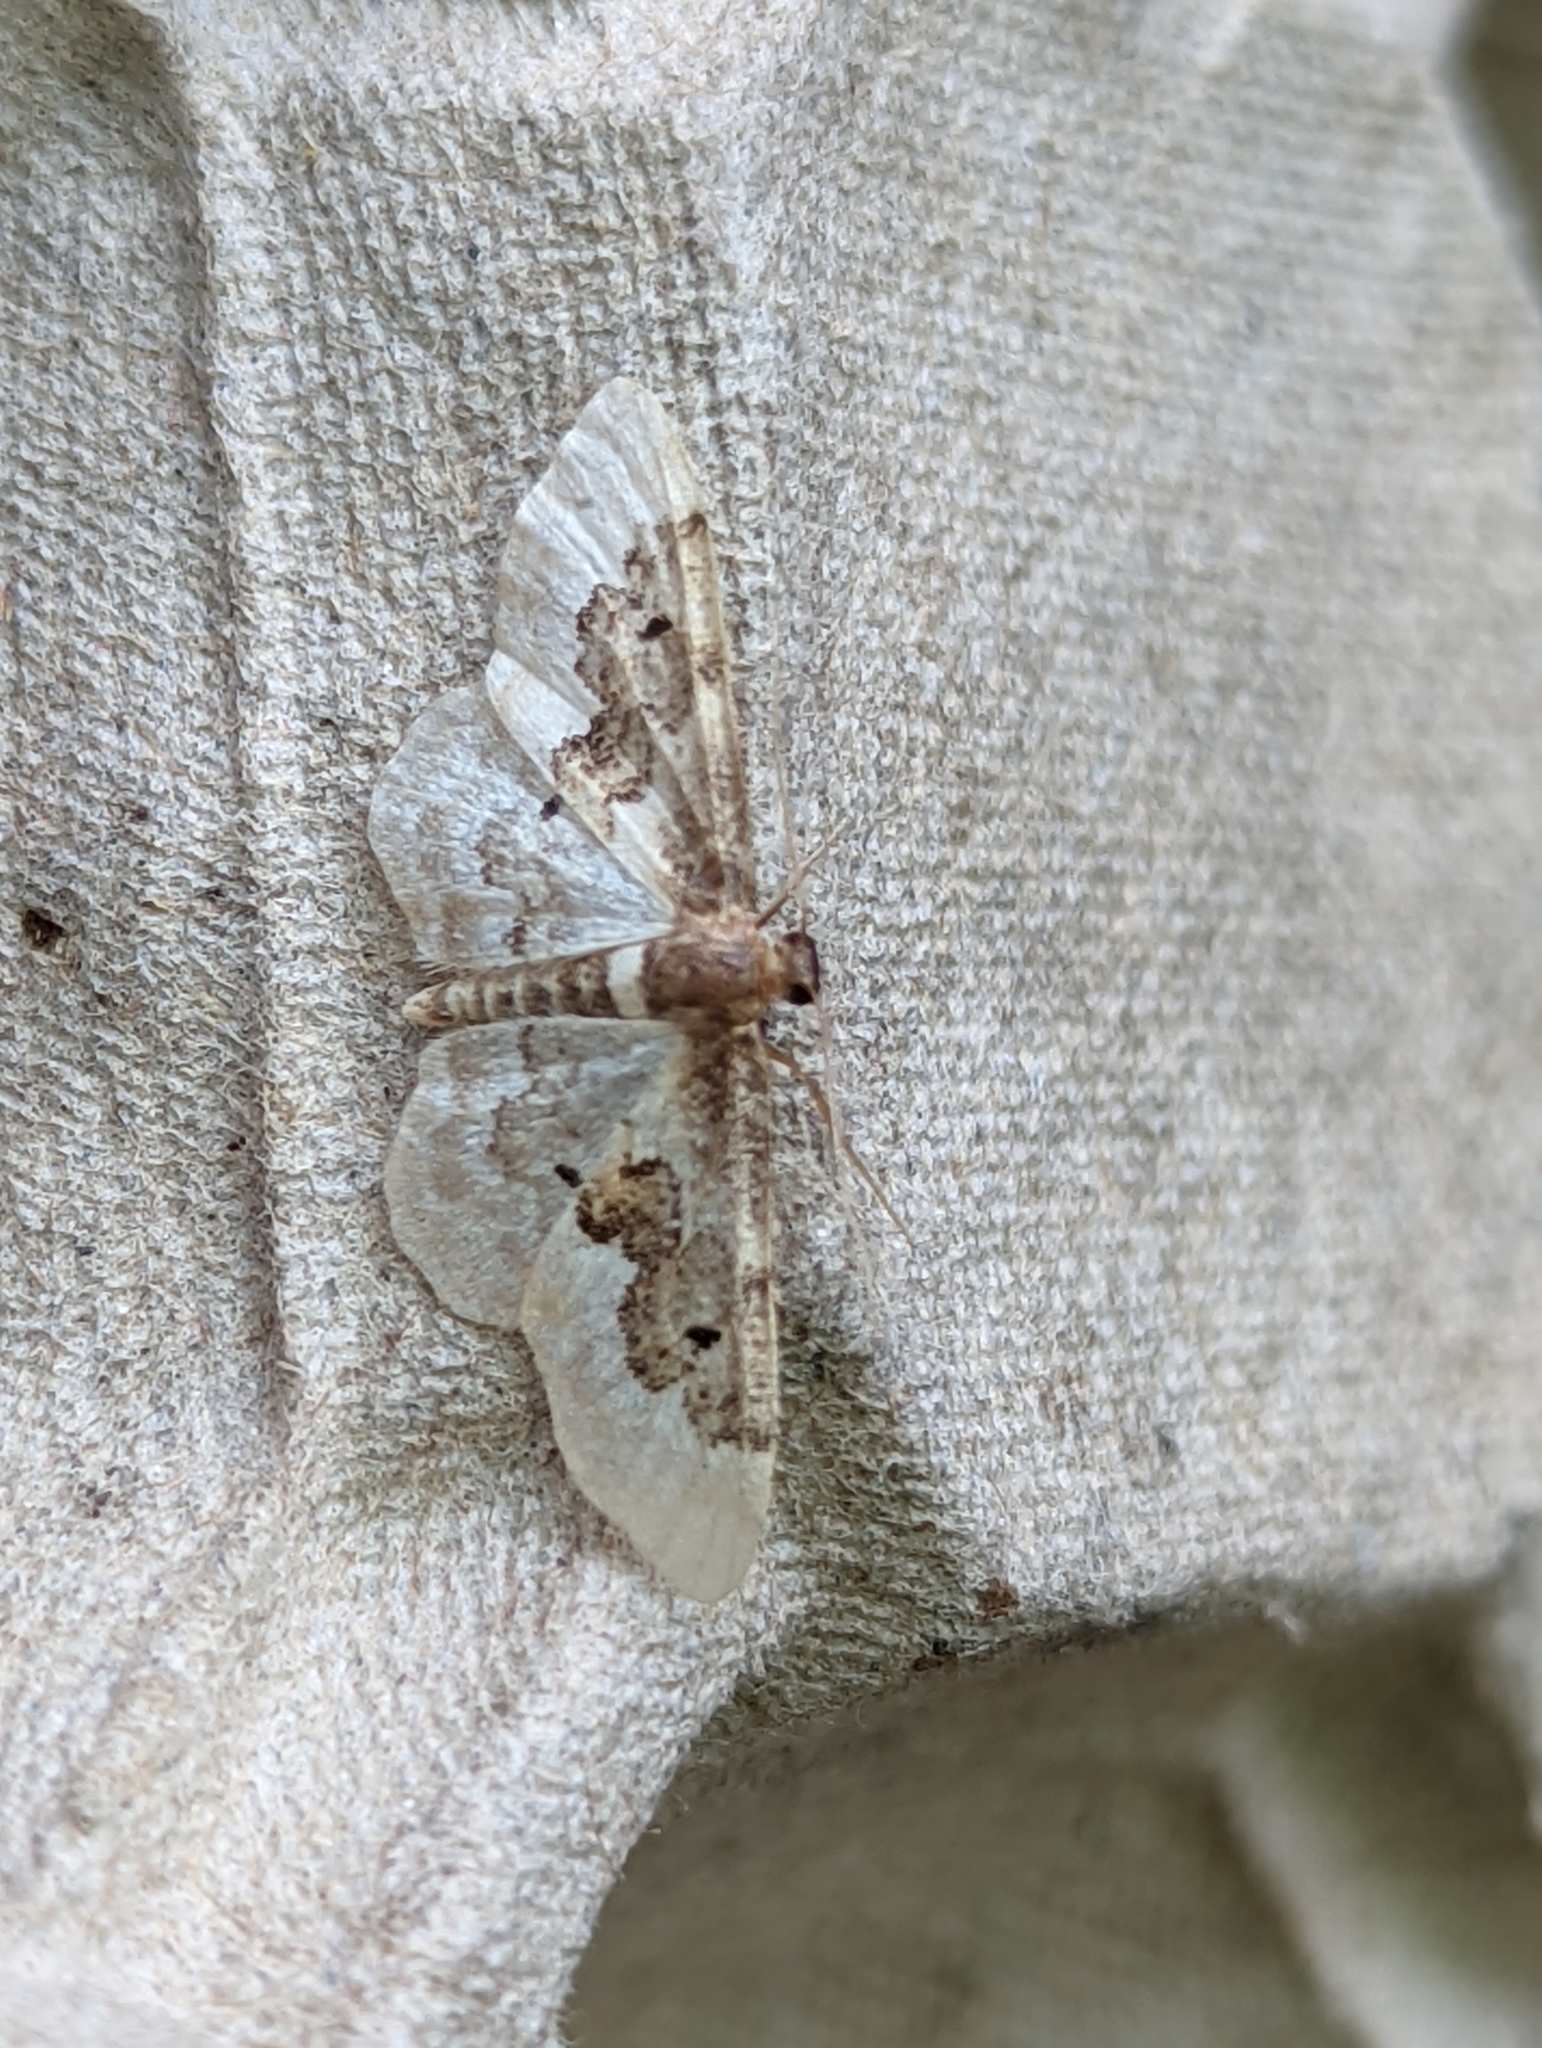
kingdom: Animalia
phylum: Arthropoda
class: Insecta
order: Lepidoptera
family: Geometridae
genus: Idaea
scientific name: Idaea rusticata
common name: Least carpet
